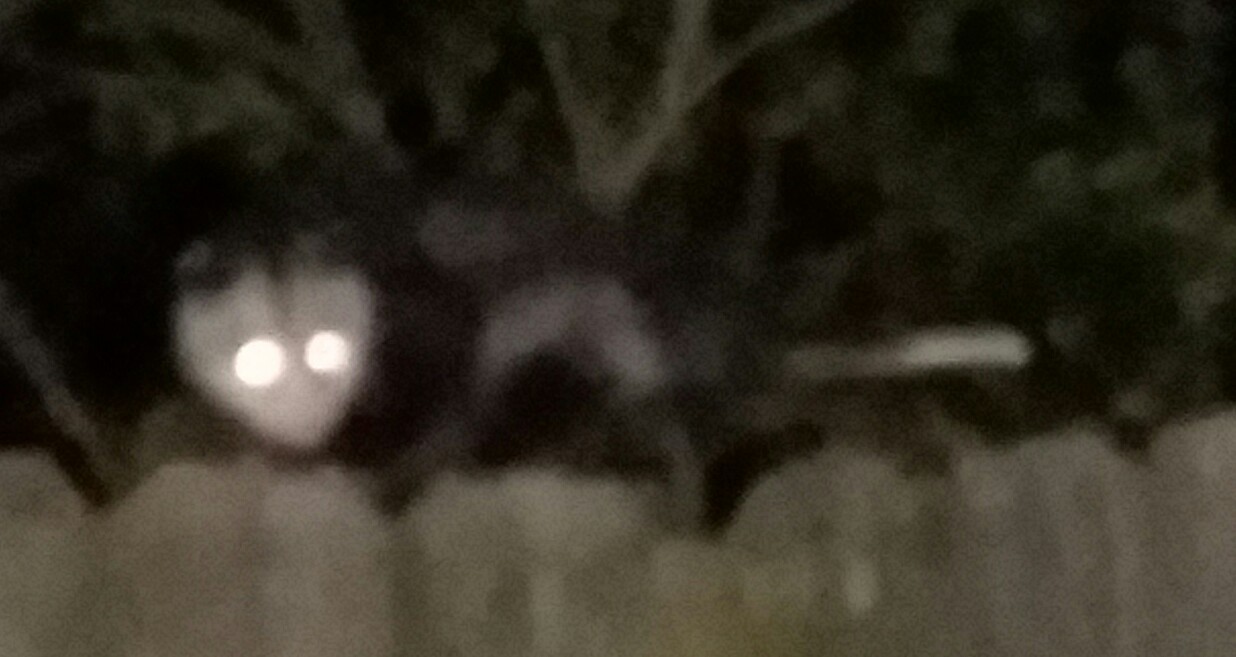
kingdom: Animalia
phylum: Chordata
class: Mammalia
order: Didelphimorphia
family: Didelphidae
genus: Didelphis
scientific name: Didelphis virginiana
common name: Virginia opossum
